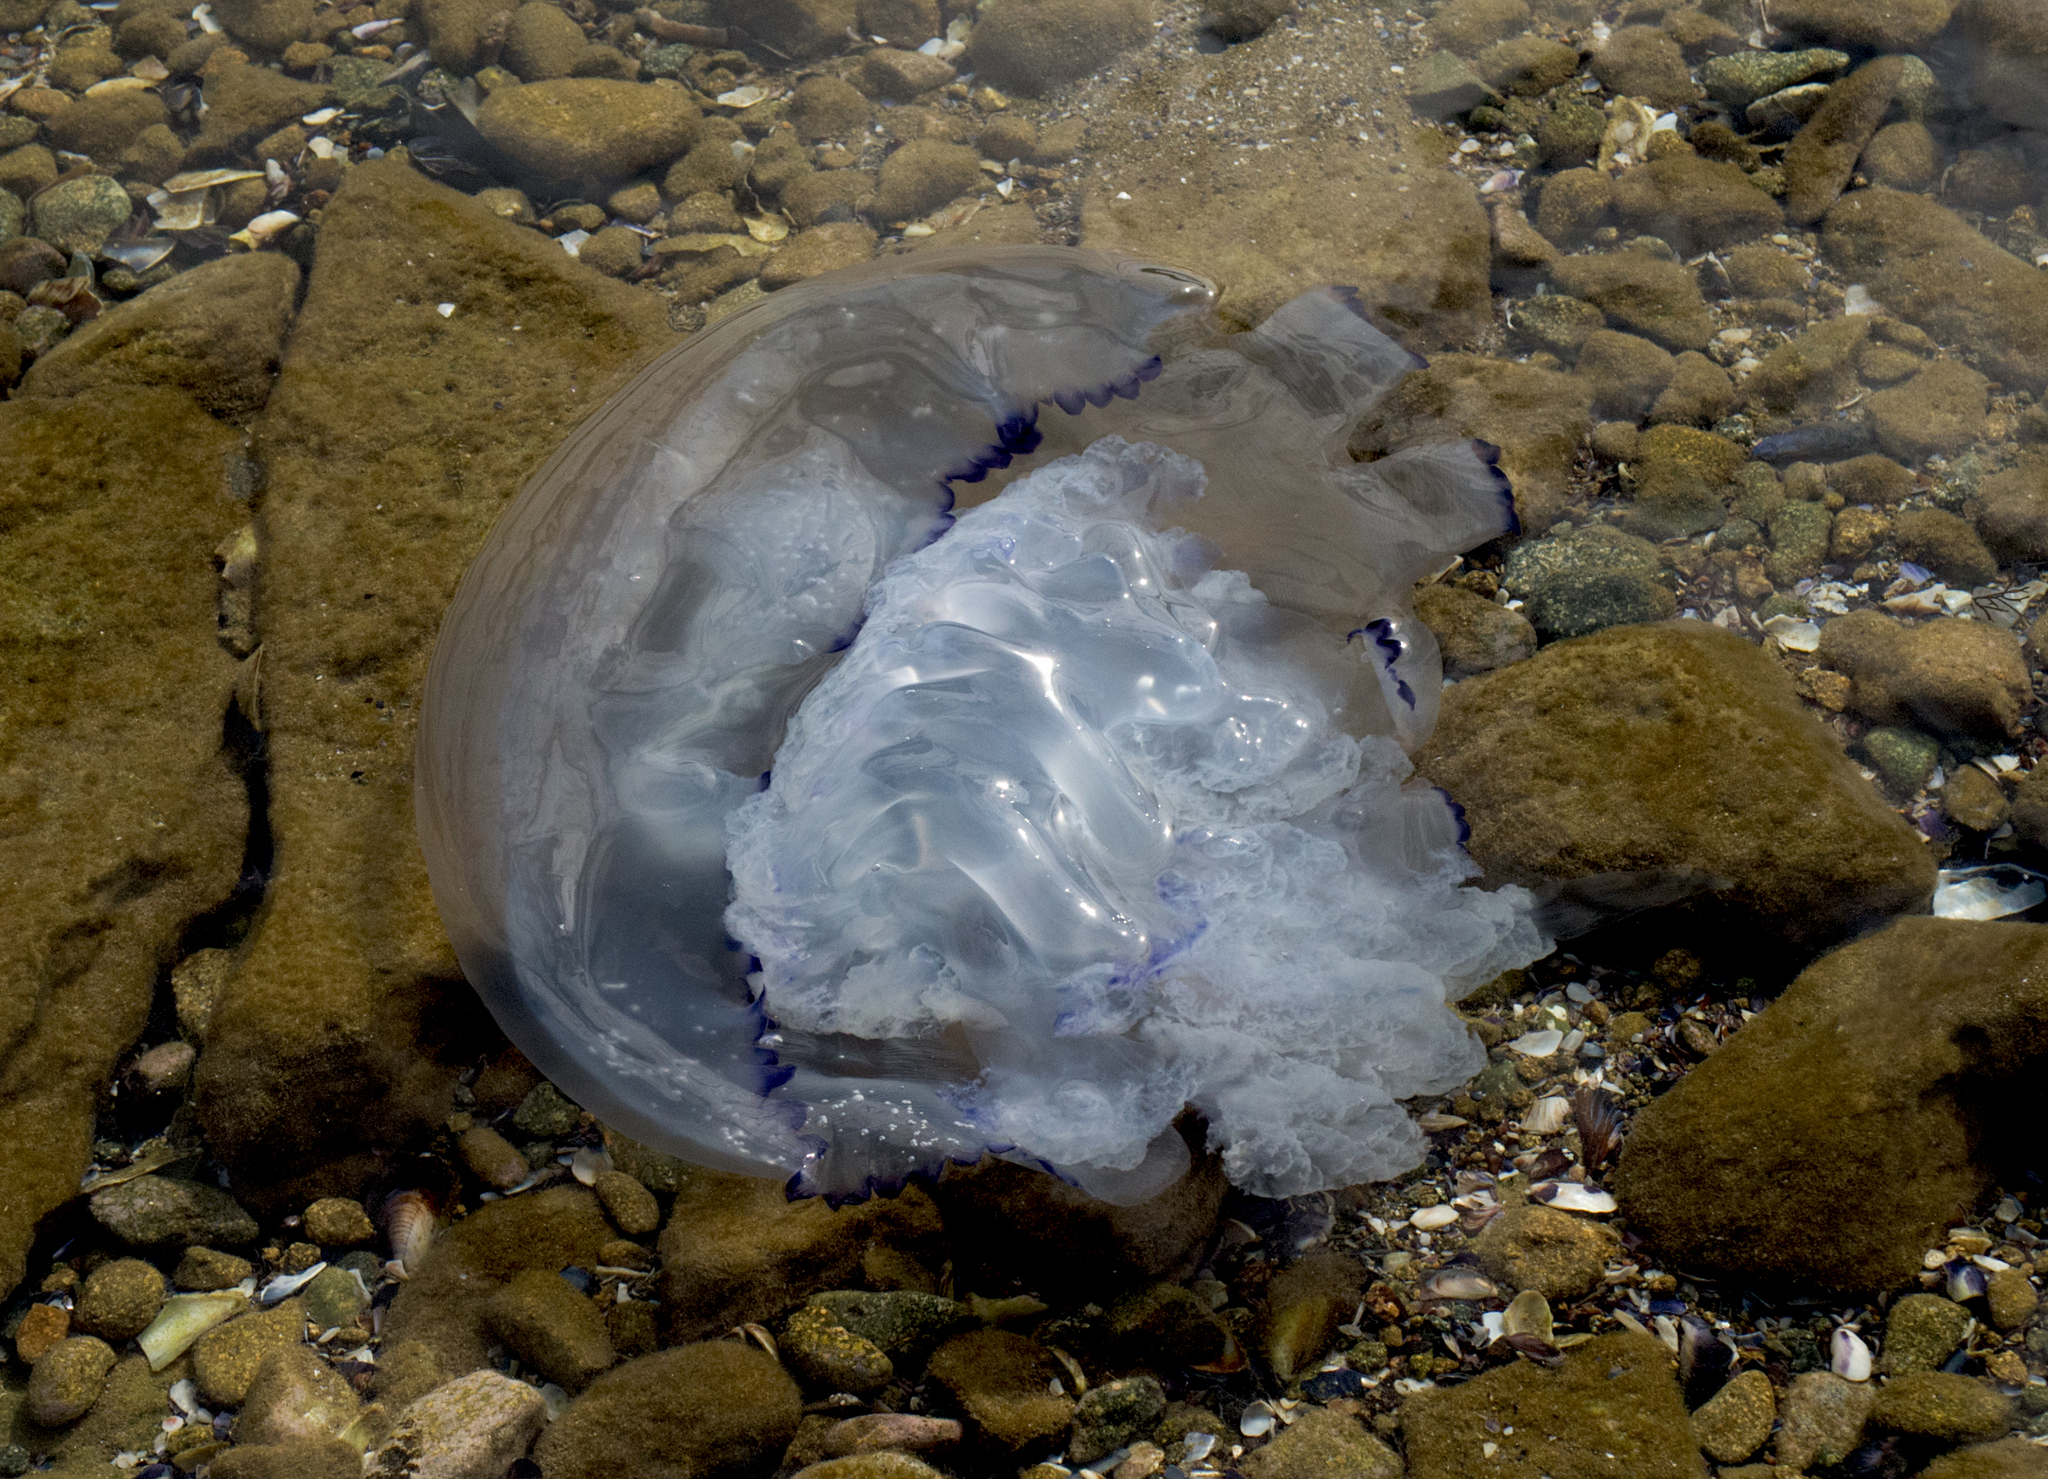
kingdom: Animalia
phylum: Cnidaria
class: Scyphozoa
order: Rhizostomeae
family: Rhizostomatidae
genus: Rhizostoma
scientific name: Rhizostoma pulmo
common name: Barrel jellyfish
